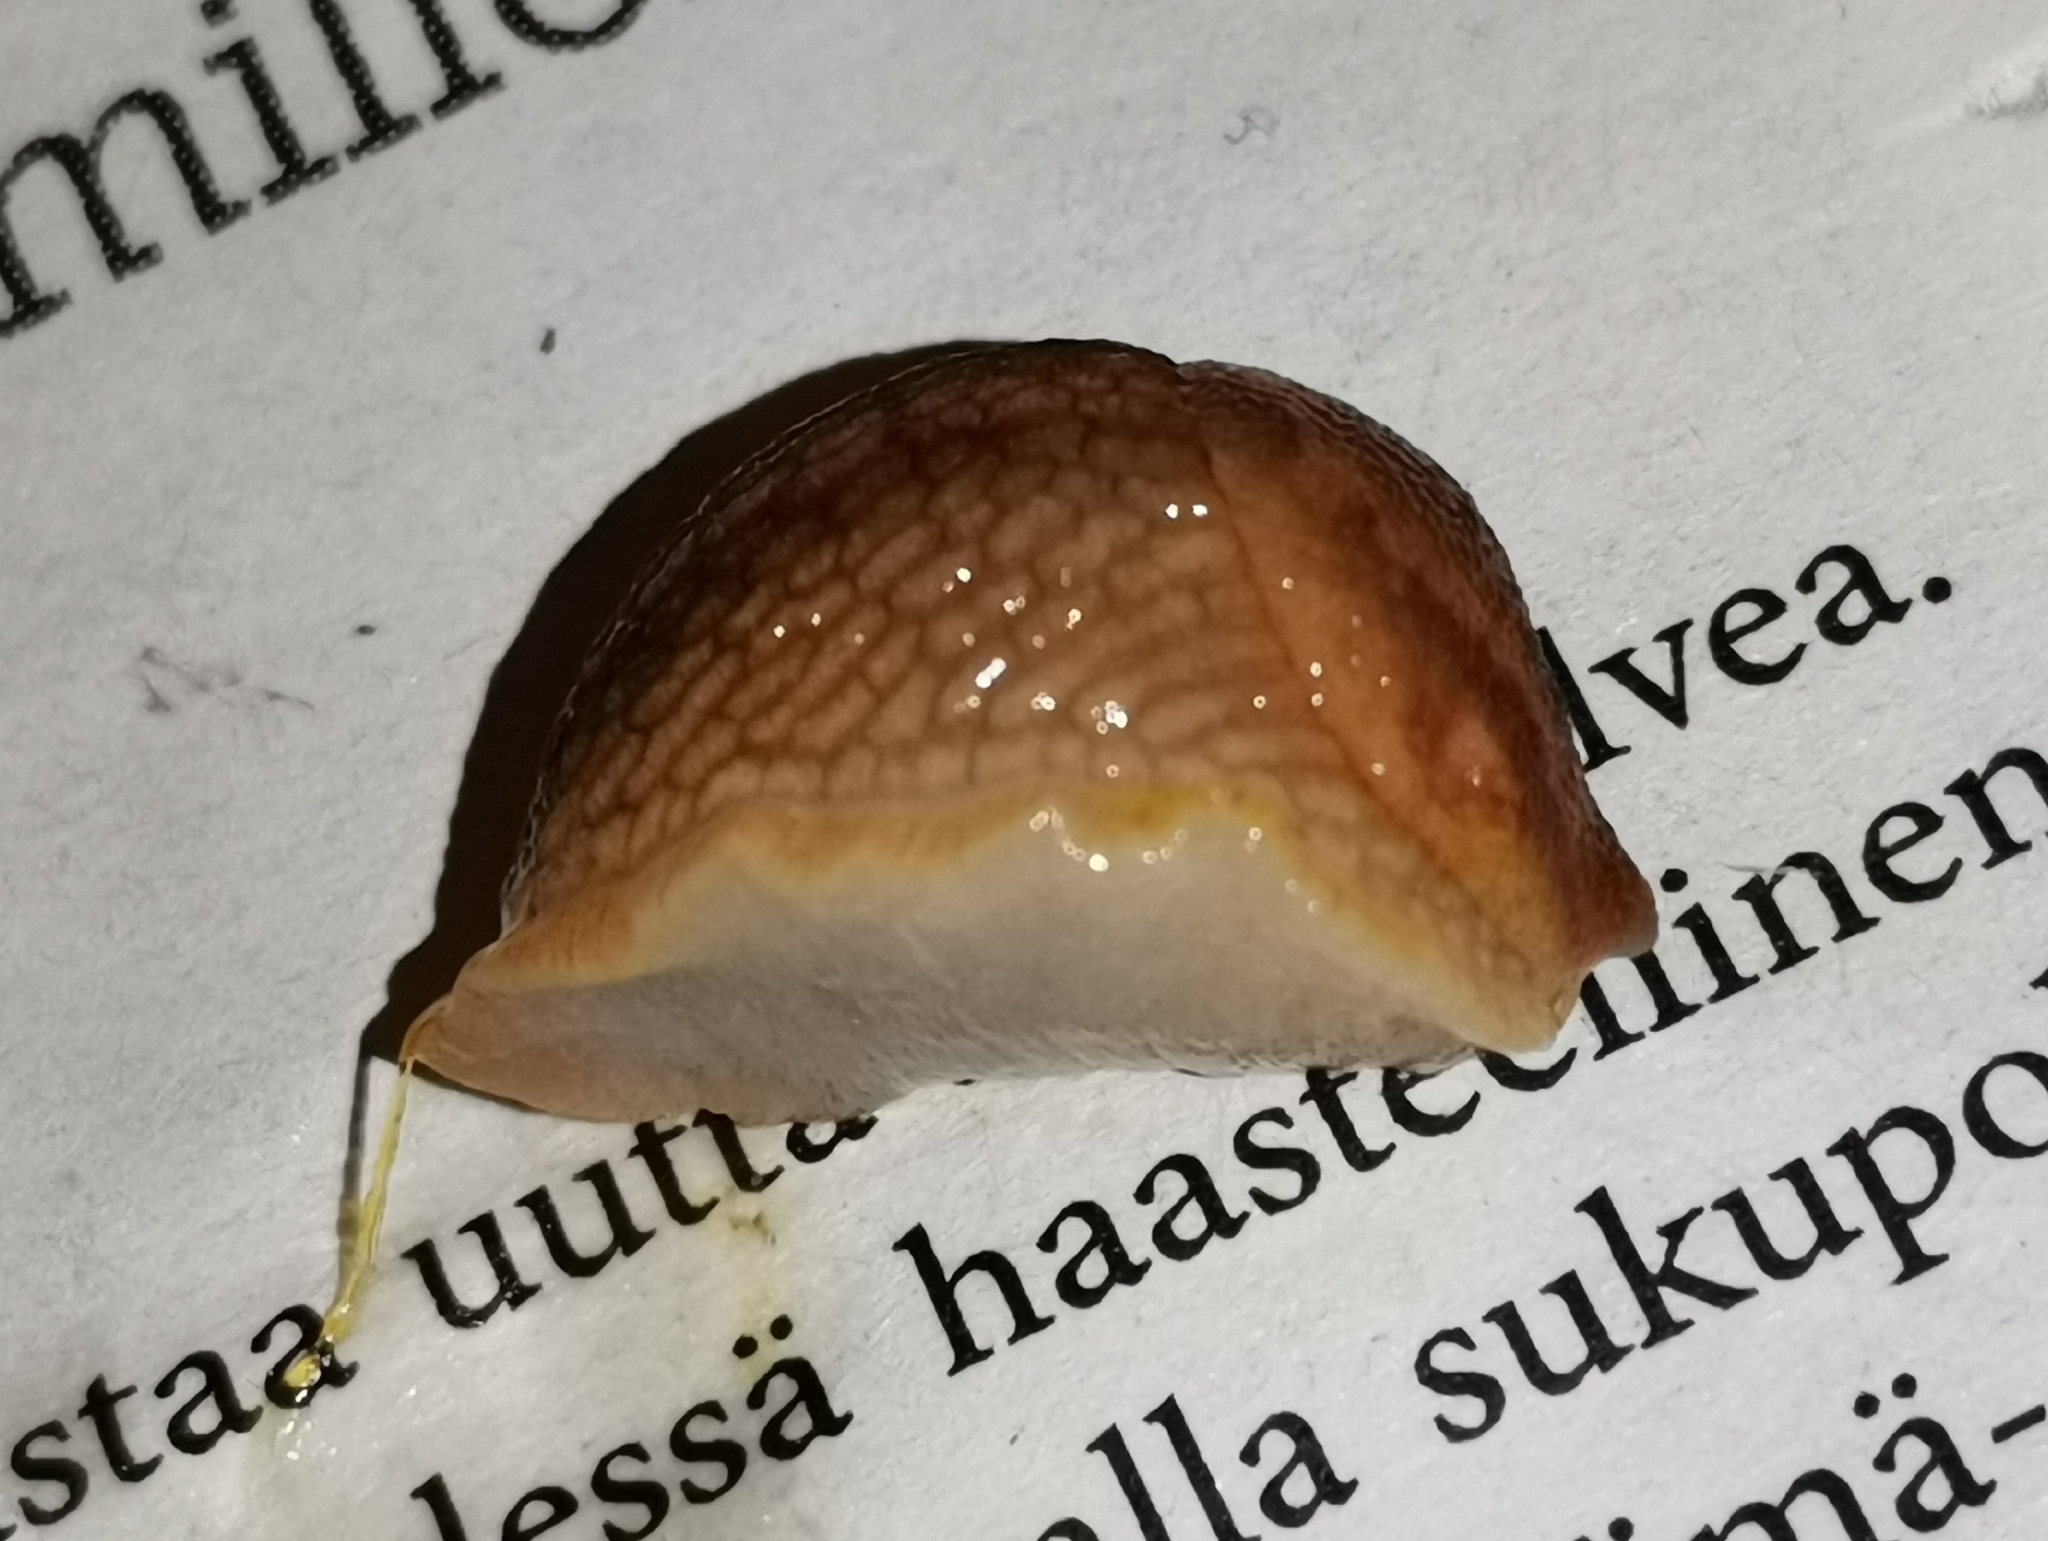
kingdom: Animalia
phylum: Mollusca
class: Gastropoda
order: Stylommatophora
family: Arionidae
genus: Arion
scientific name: Arion fuscus
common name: Northern dusky slug
